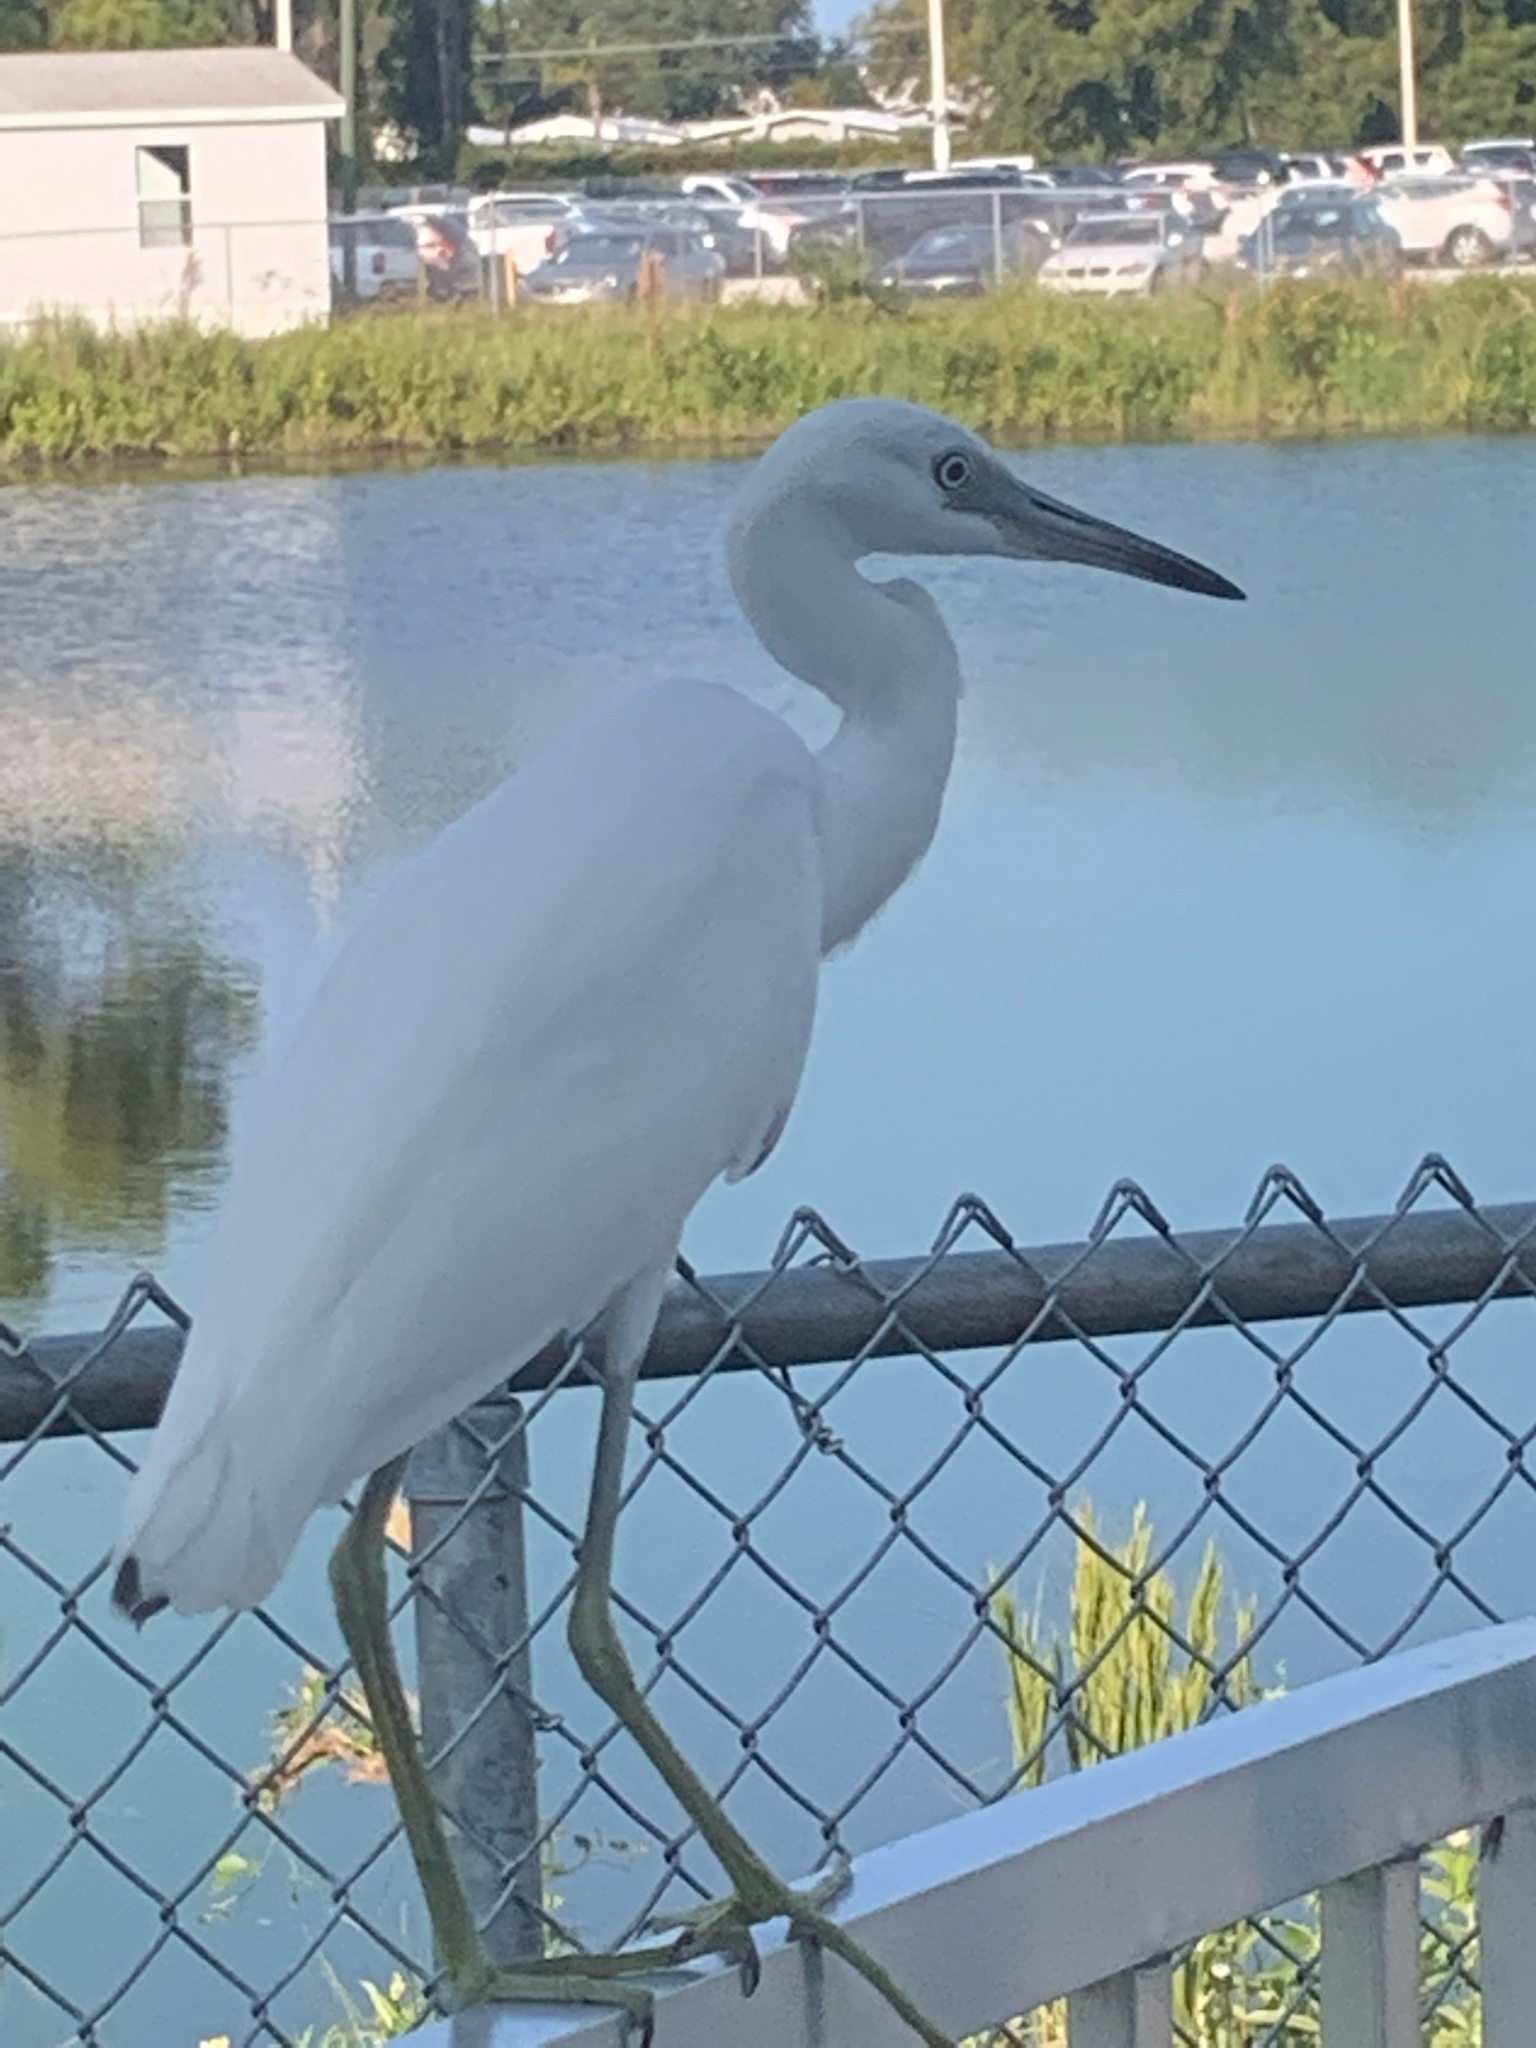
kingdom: Animalia
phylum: Chordata
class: Aves
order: Pelecaniformes
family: Ardeidae
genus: Egretta
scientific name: Egretta caerulea
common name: Little blue heron
